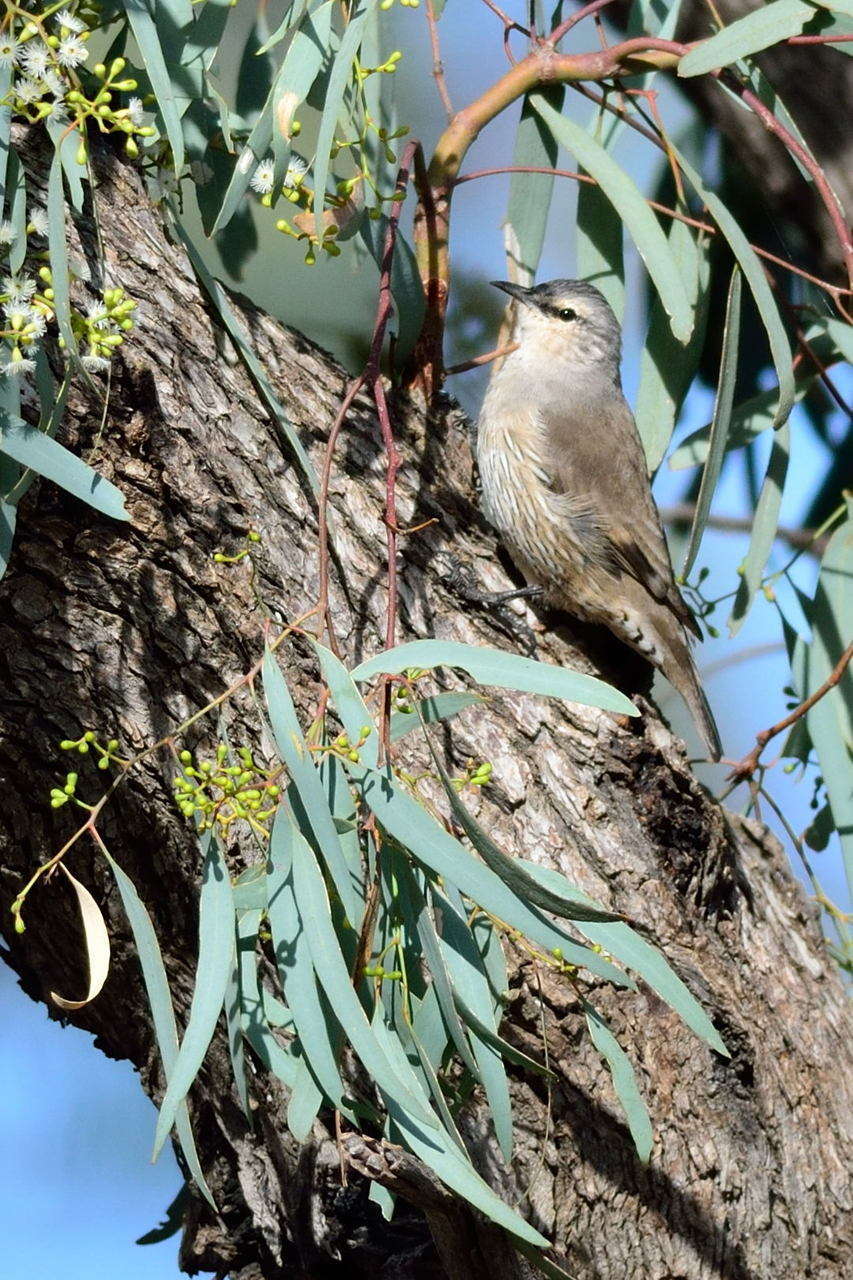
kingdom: Animalia
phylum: Chordata
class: Aves
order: Passeriformes
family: Climacteridae
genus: Climacteris
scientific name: Climacteris picumnus
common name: Brown treecreeper
